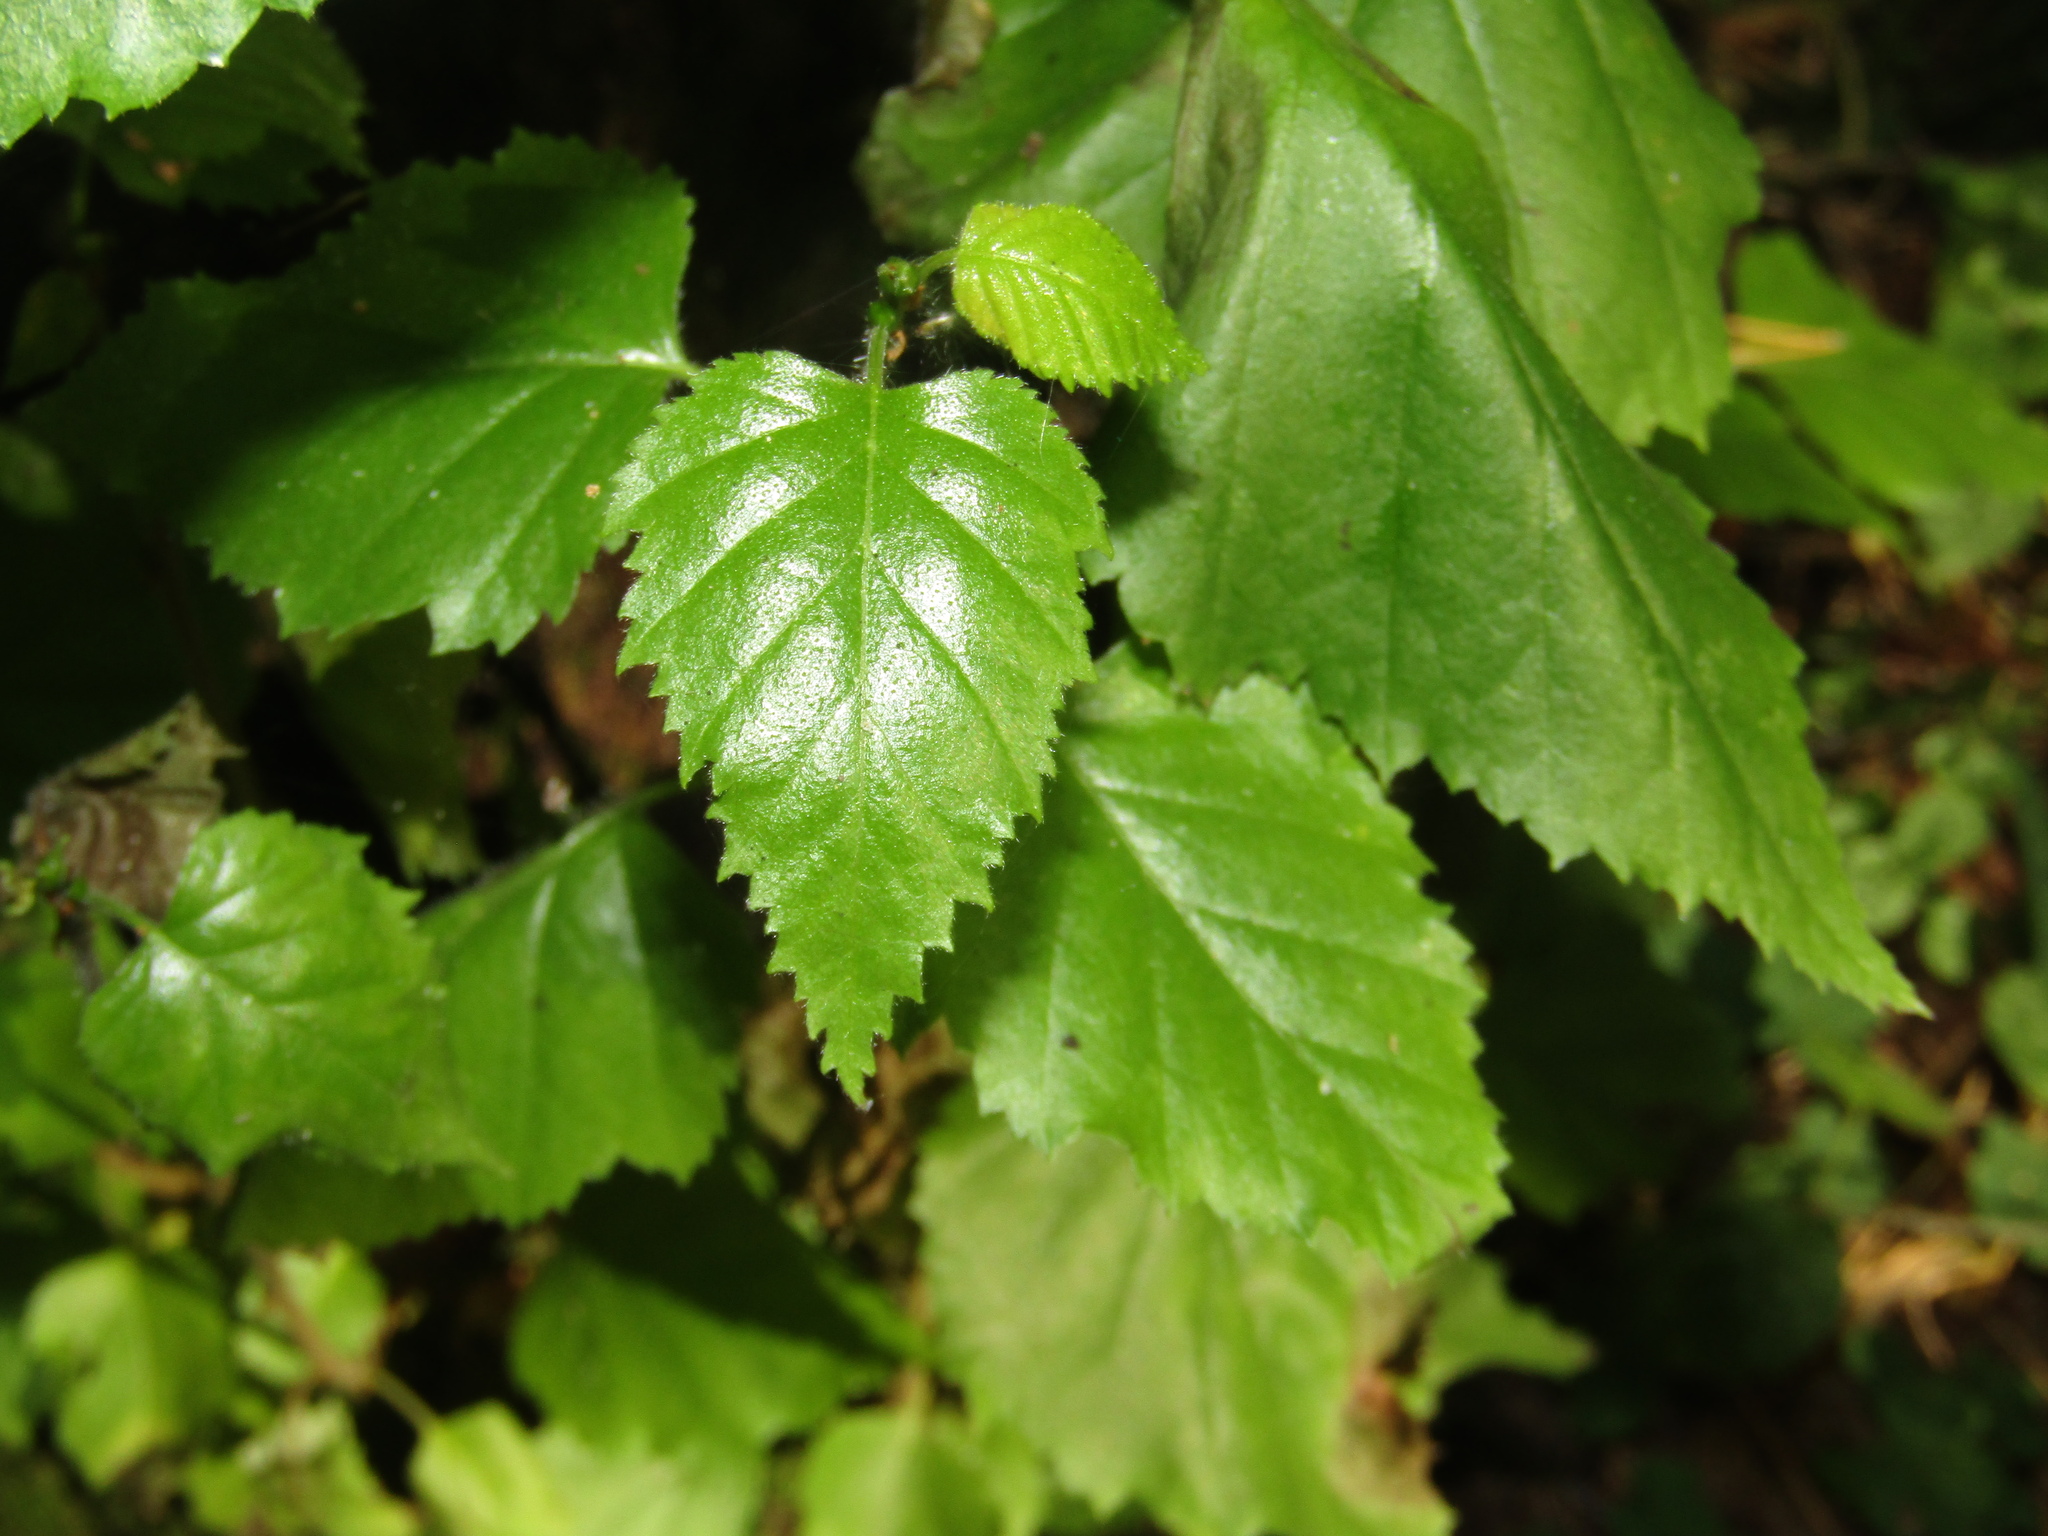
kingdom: Plantae
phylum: Tracheophyta
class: Magnoliopsida
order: Fagales
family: Betulaceae
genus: Betula
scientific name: Betula pubescens
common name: Downy birch
